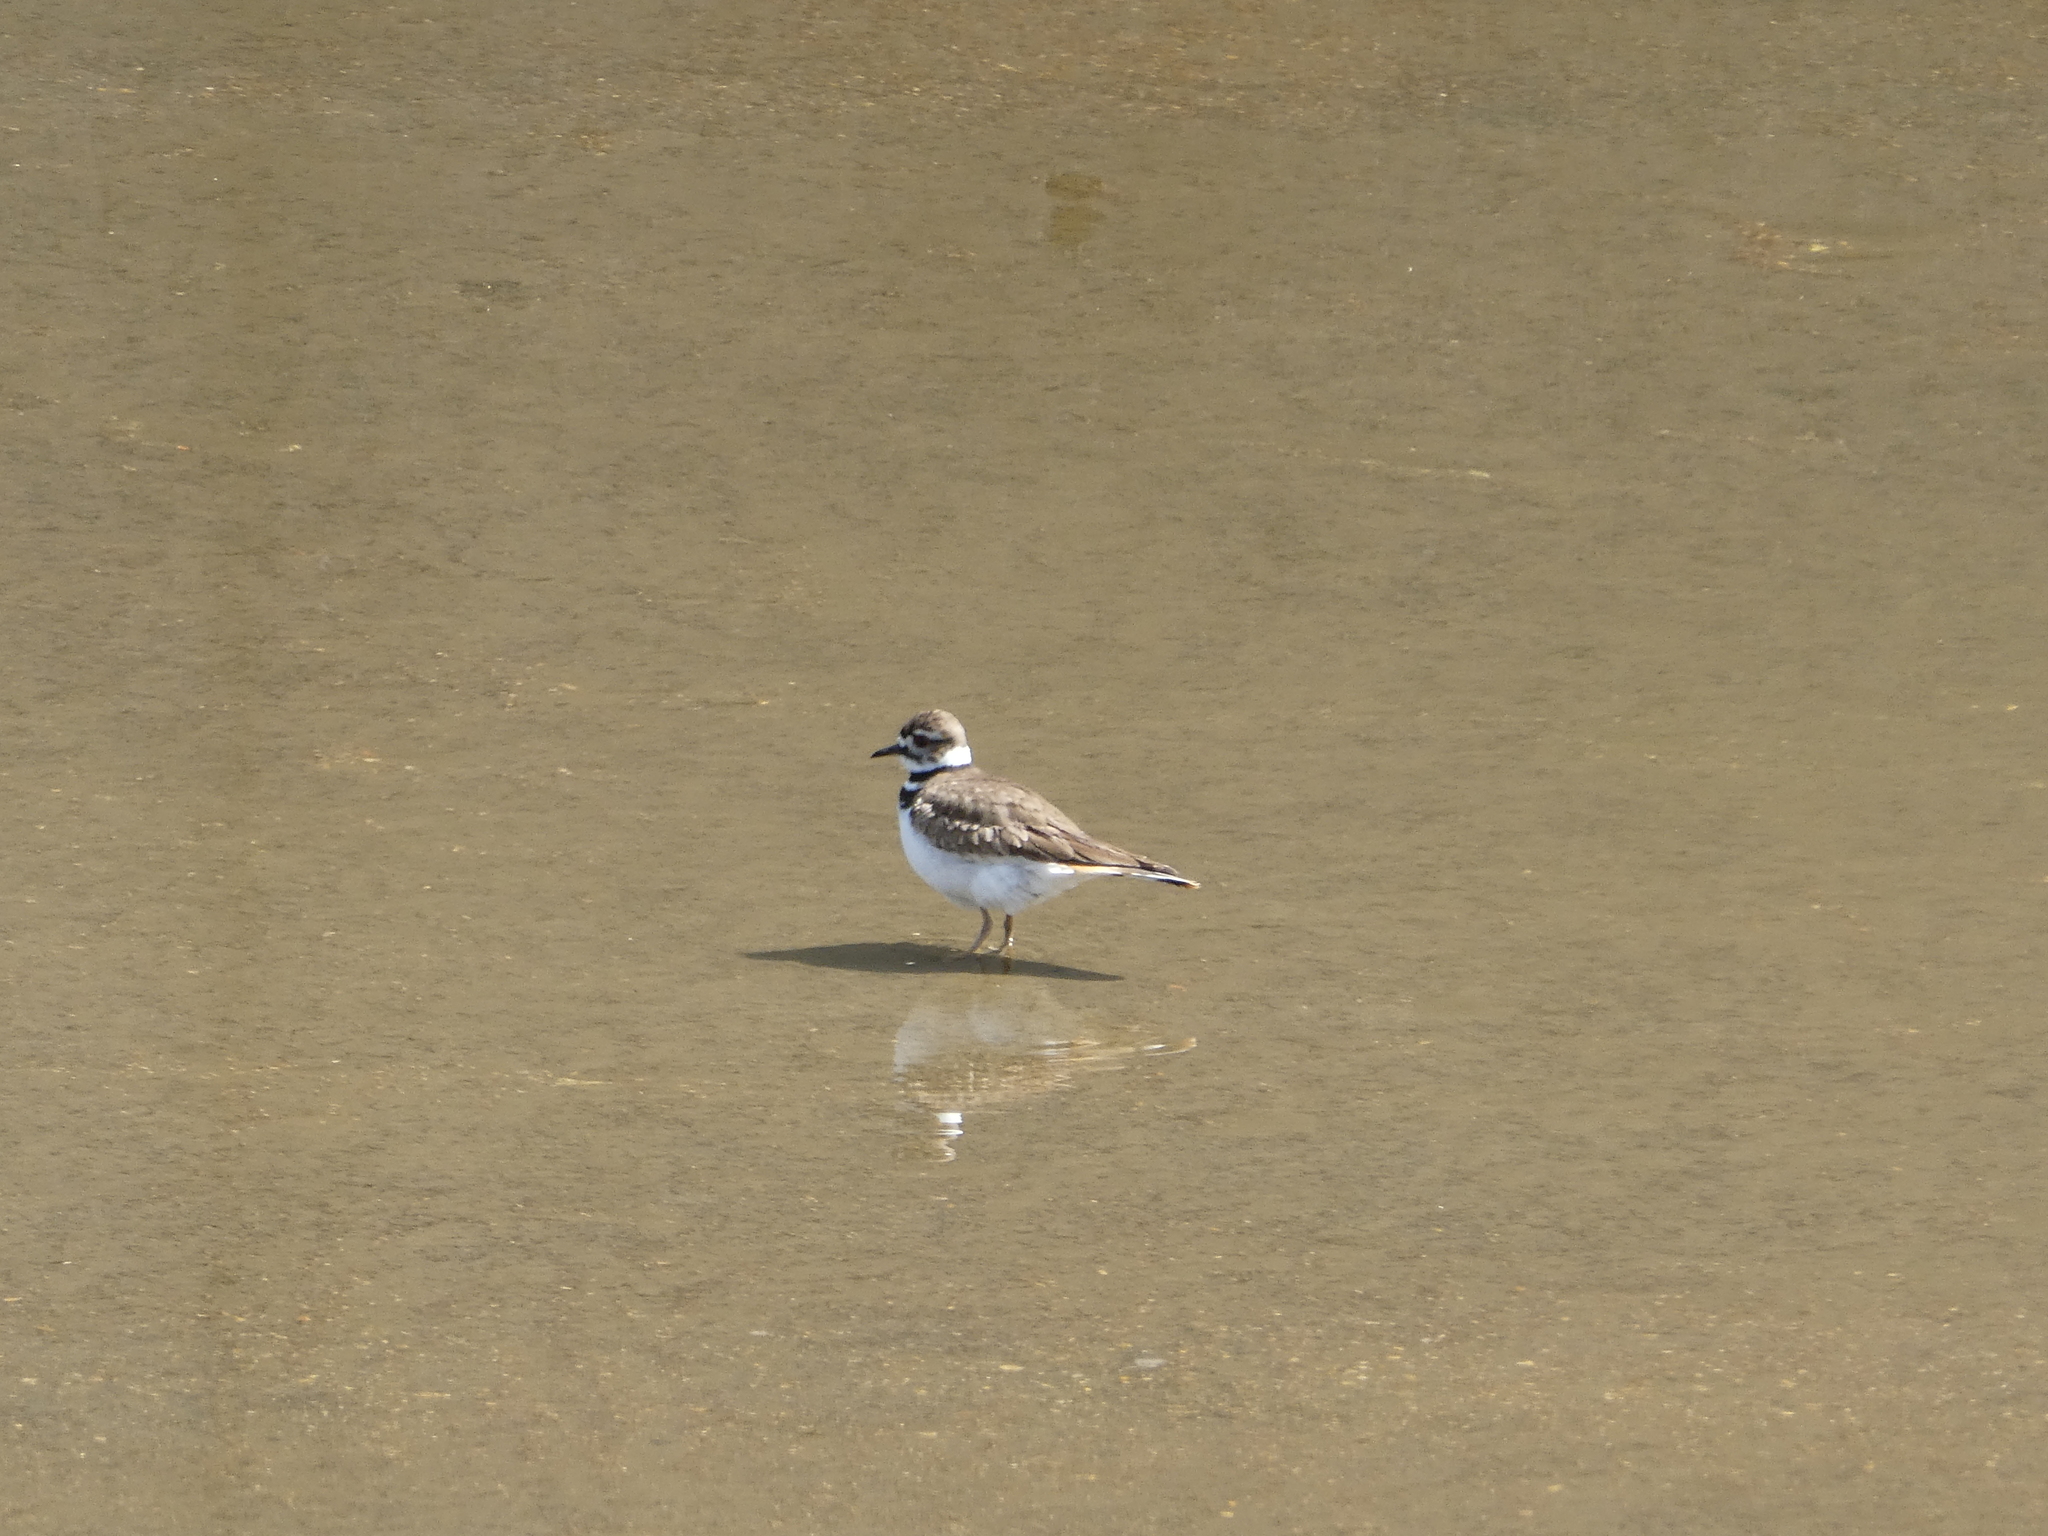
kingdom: Animalia
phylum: Chordata
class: Aves
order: Charadriiformes
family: Charadriidae
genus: Charadrius
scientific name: Charadrius vociferus
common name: Killdeer
